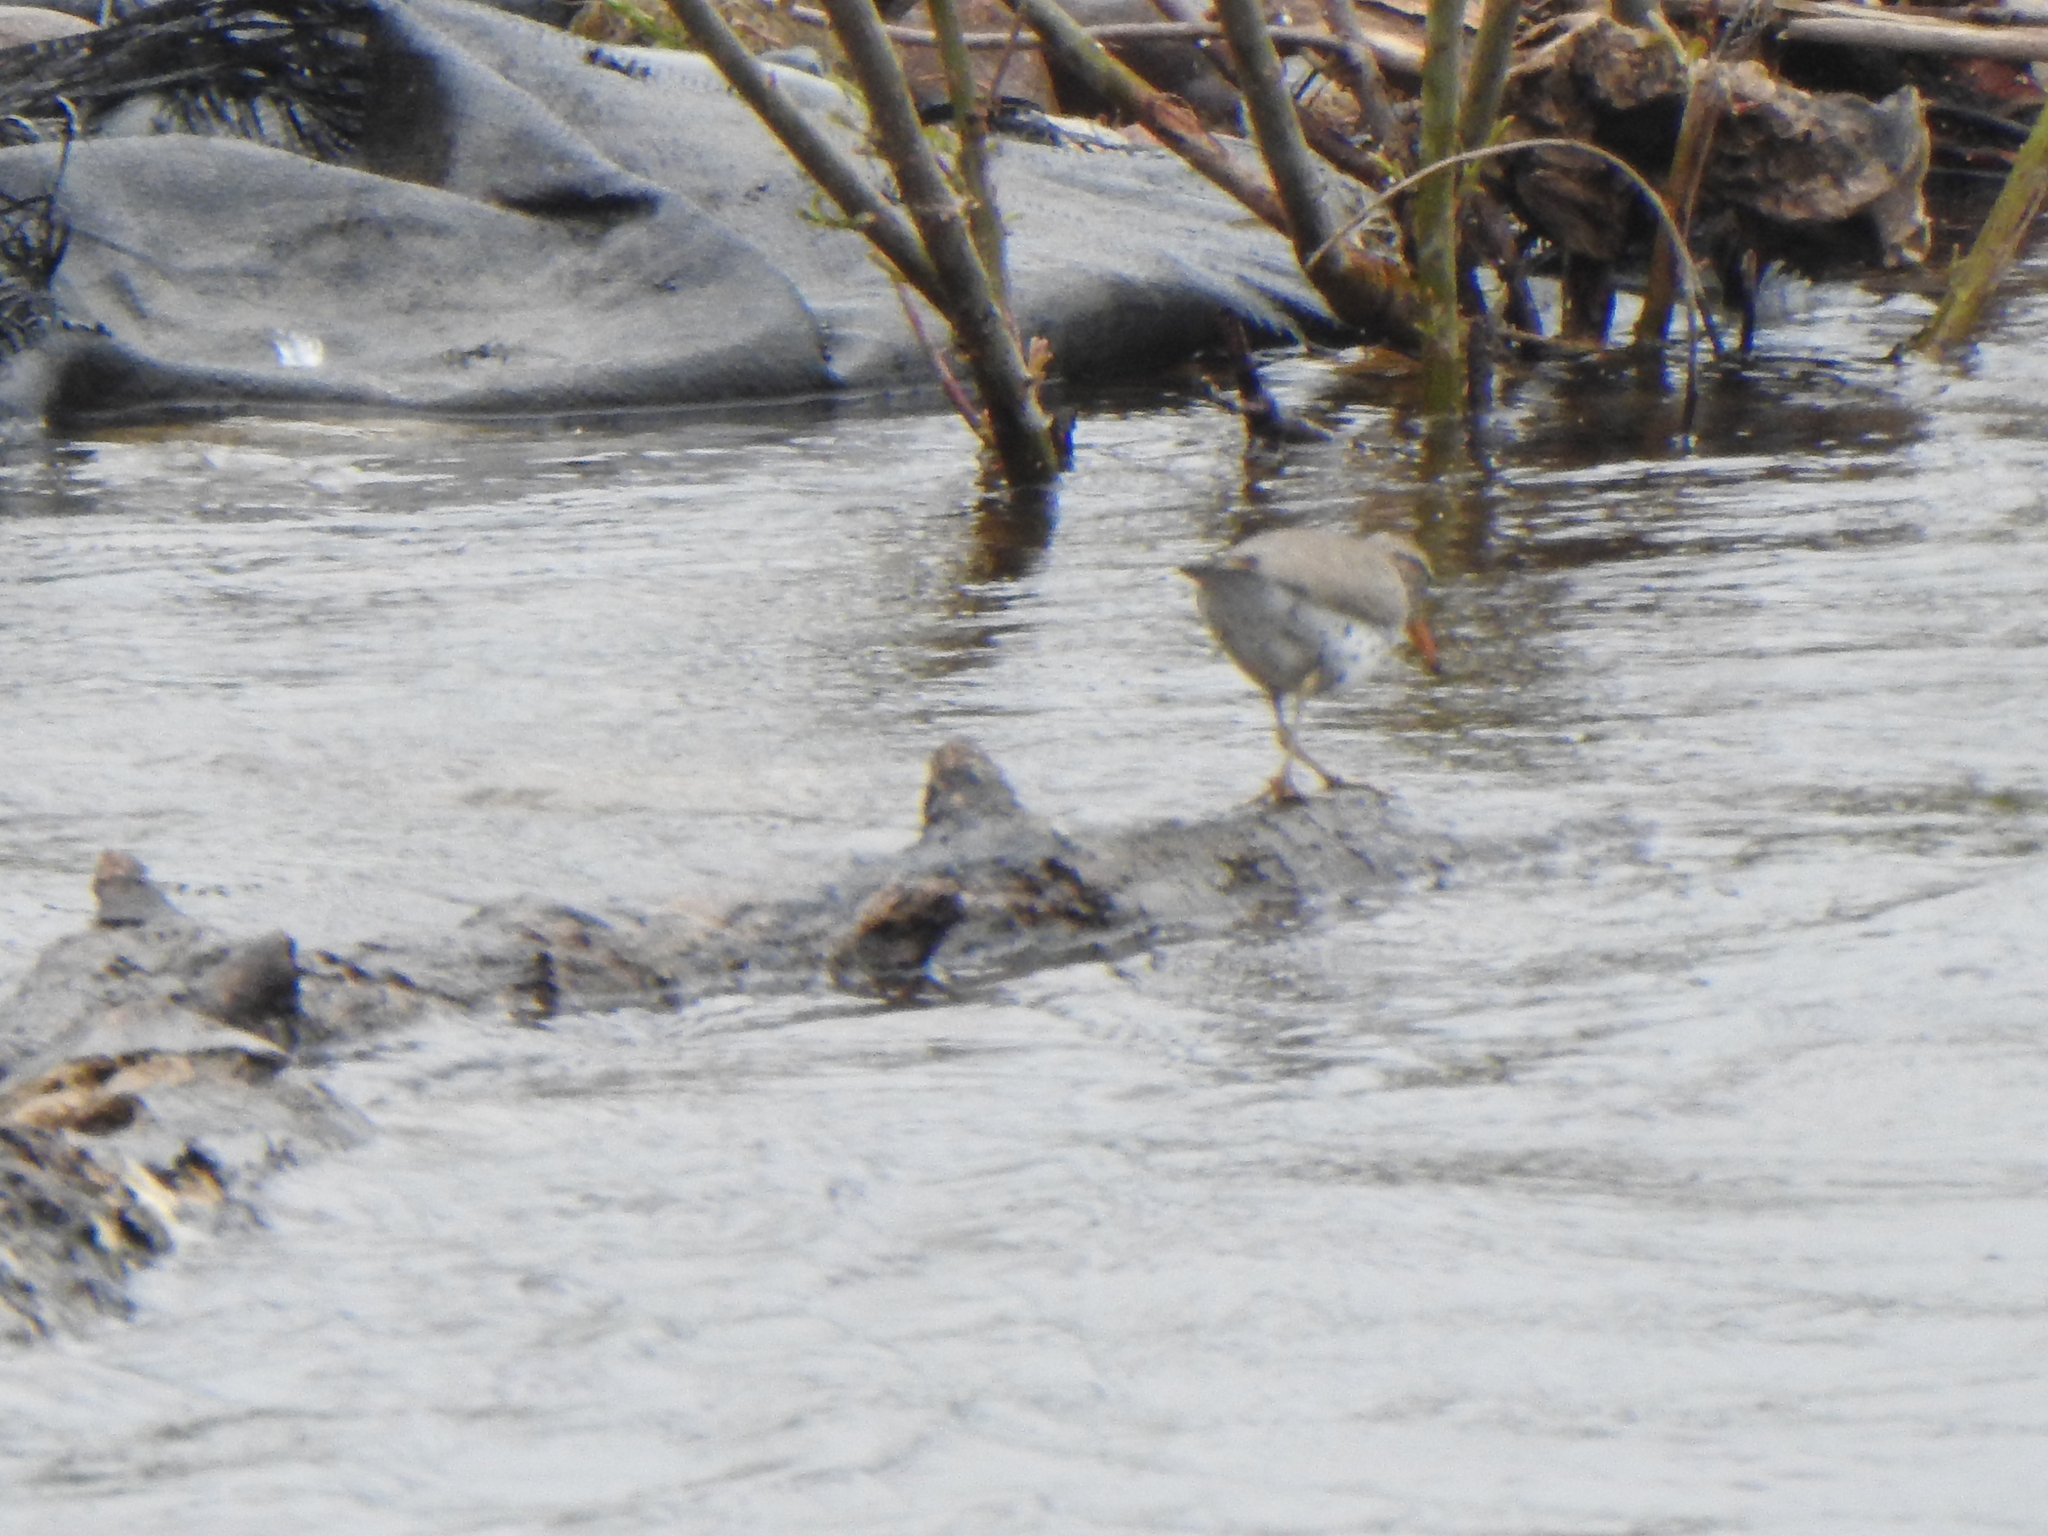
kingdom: Animalia
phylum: Chordata
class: Aves
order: Charadriiformes
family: Scolopacidae
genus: Actitis
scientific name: Actitis macularius
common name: Spotted sandpiper
